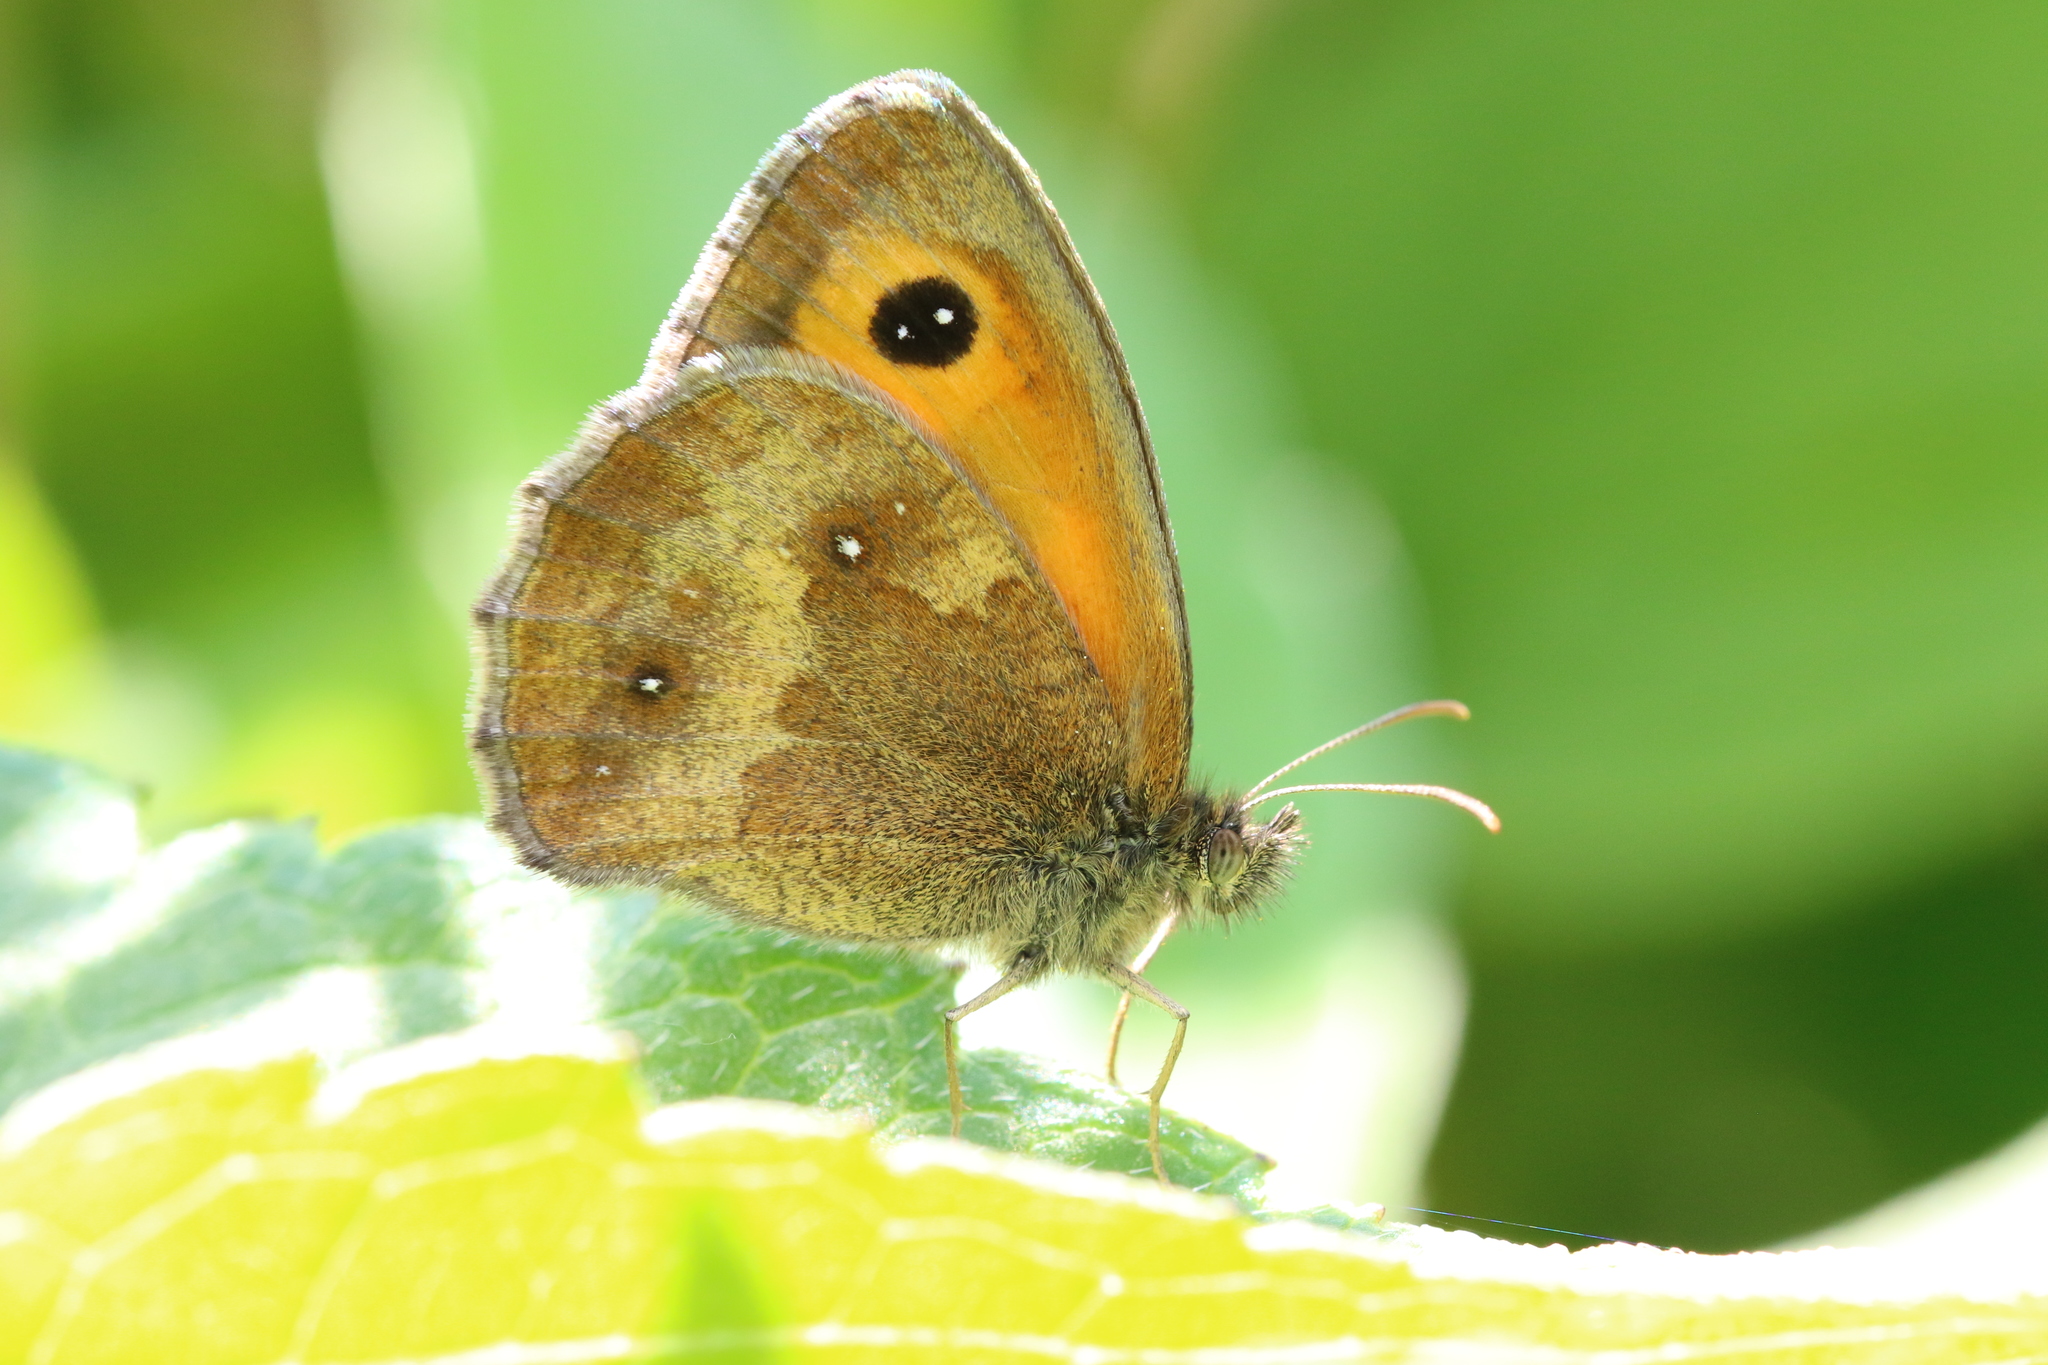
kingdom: Animalia
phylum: Arthropoda
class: Insecta
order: Lepidoptera
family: Nymphalidae
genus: Pyronia
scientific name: Pyronia tithonus
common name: Gatekeeper
